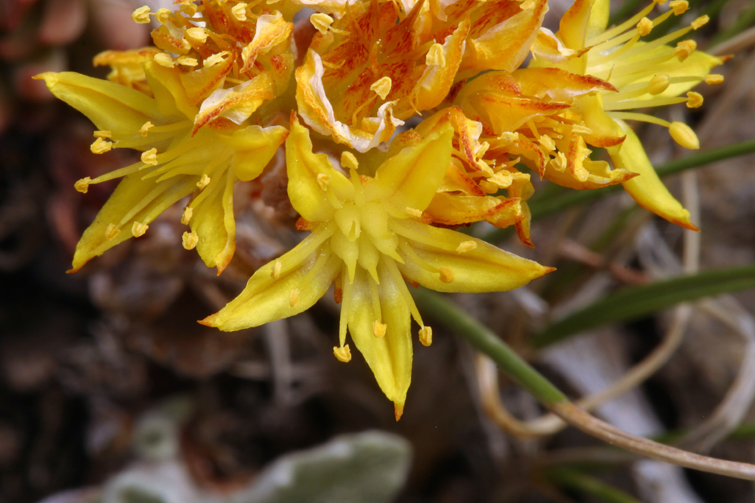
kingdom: Plantae
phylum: Tracheophyta
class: Magnoliopsida
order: Saxifragales
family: Crassulaceae
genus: Sedum
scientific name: Sedum lanceolatum
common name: Common stonecrop
